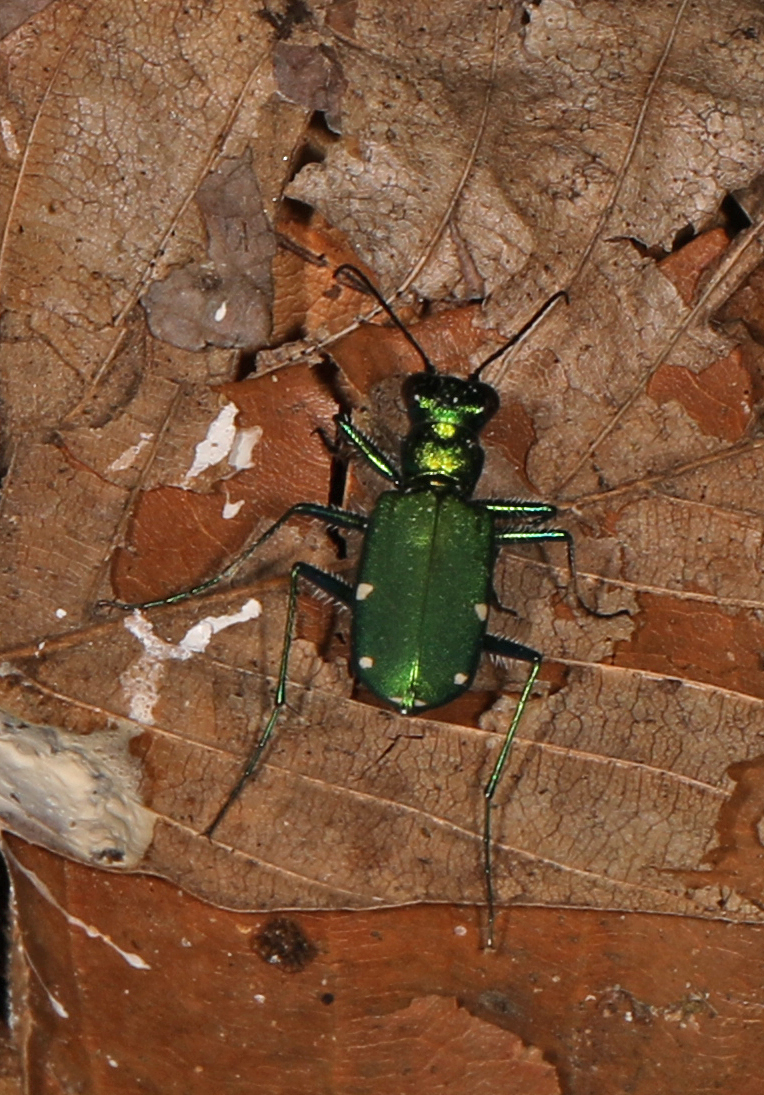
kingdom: Animalia
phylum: Arthropoda
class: Insecta
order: Coleoptera
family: Carabidae
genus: Cicindela
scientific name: Cicindela sexguttata
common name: Six-spotted tiger beetle
